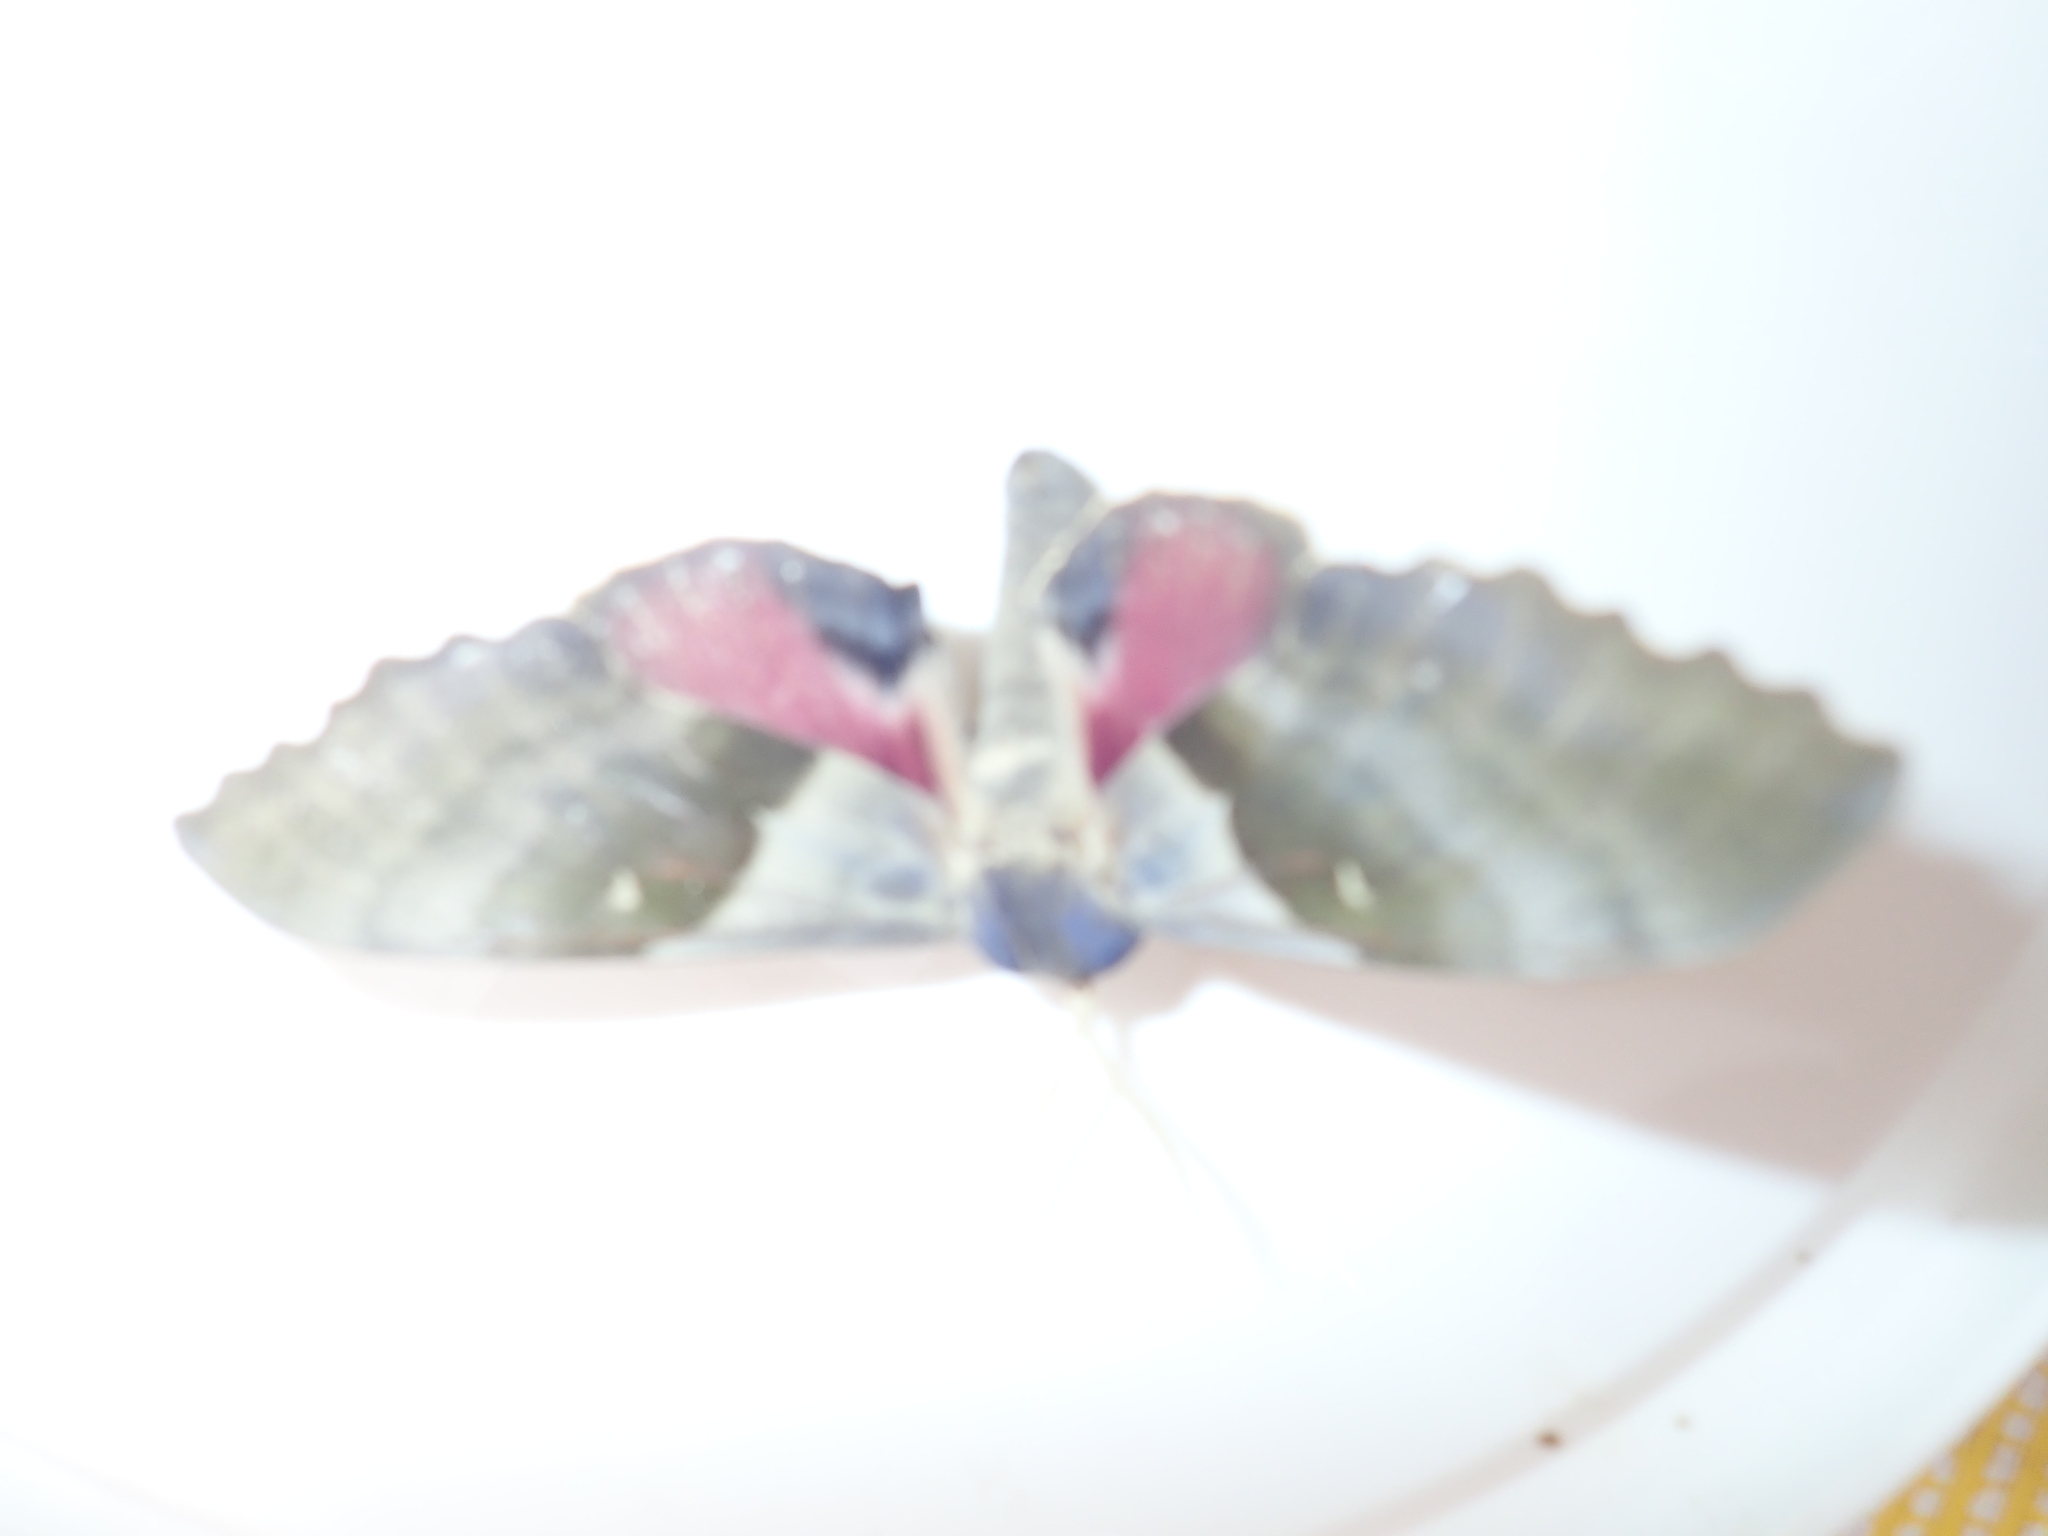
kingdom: Animalia
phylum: Arthropoda
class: Insecta
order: Lepidoptera
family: Sphingidae
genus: Pachysphinx
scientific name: Pachysphinx modesta
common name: Big poplar sphinx
